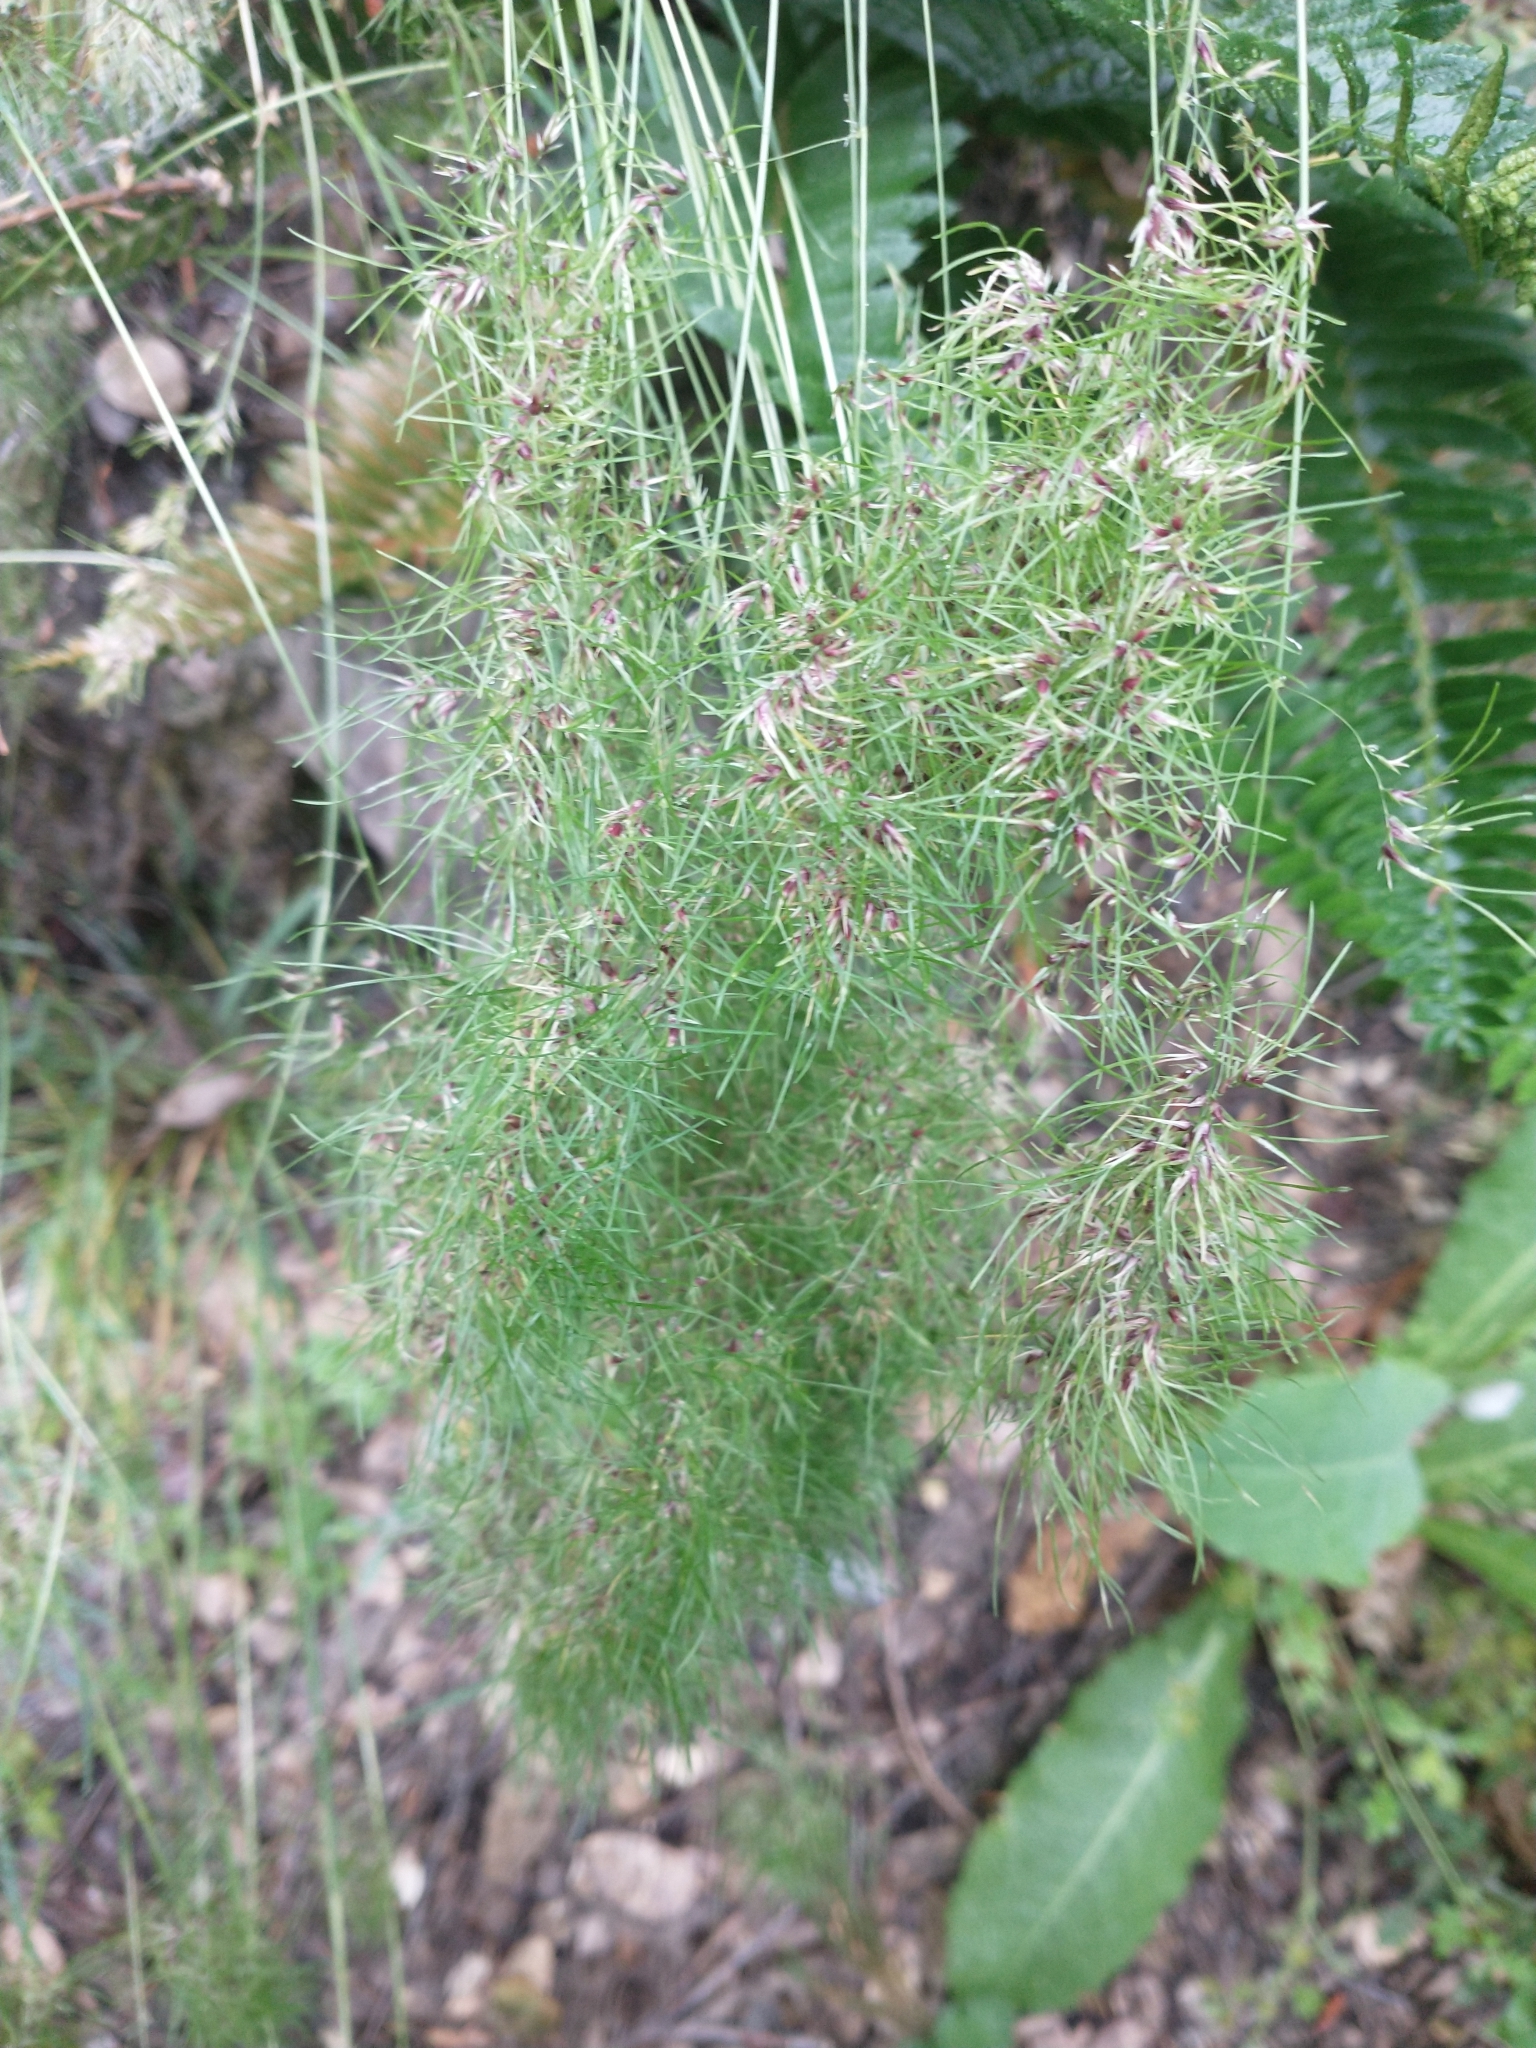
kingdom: Plantae
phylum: Tracheophyta
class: Liliopsida
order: Poales
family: Poaceae
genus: Poa
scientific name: Poa bulbosa
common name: Bulbous bluegrass
